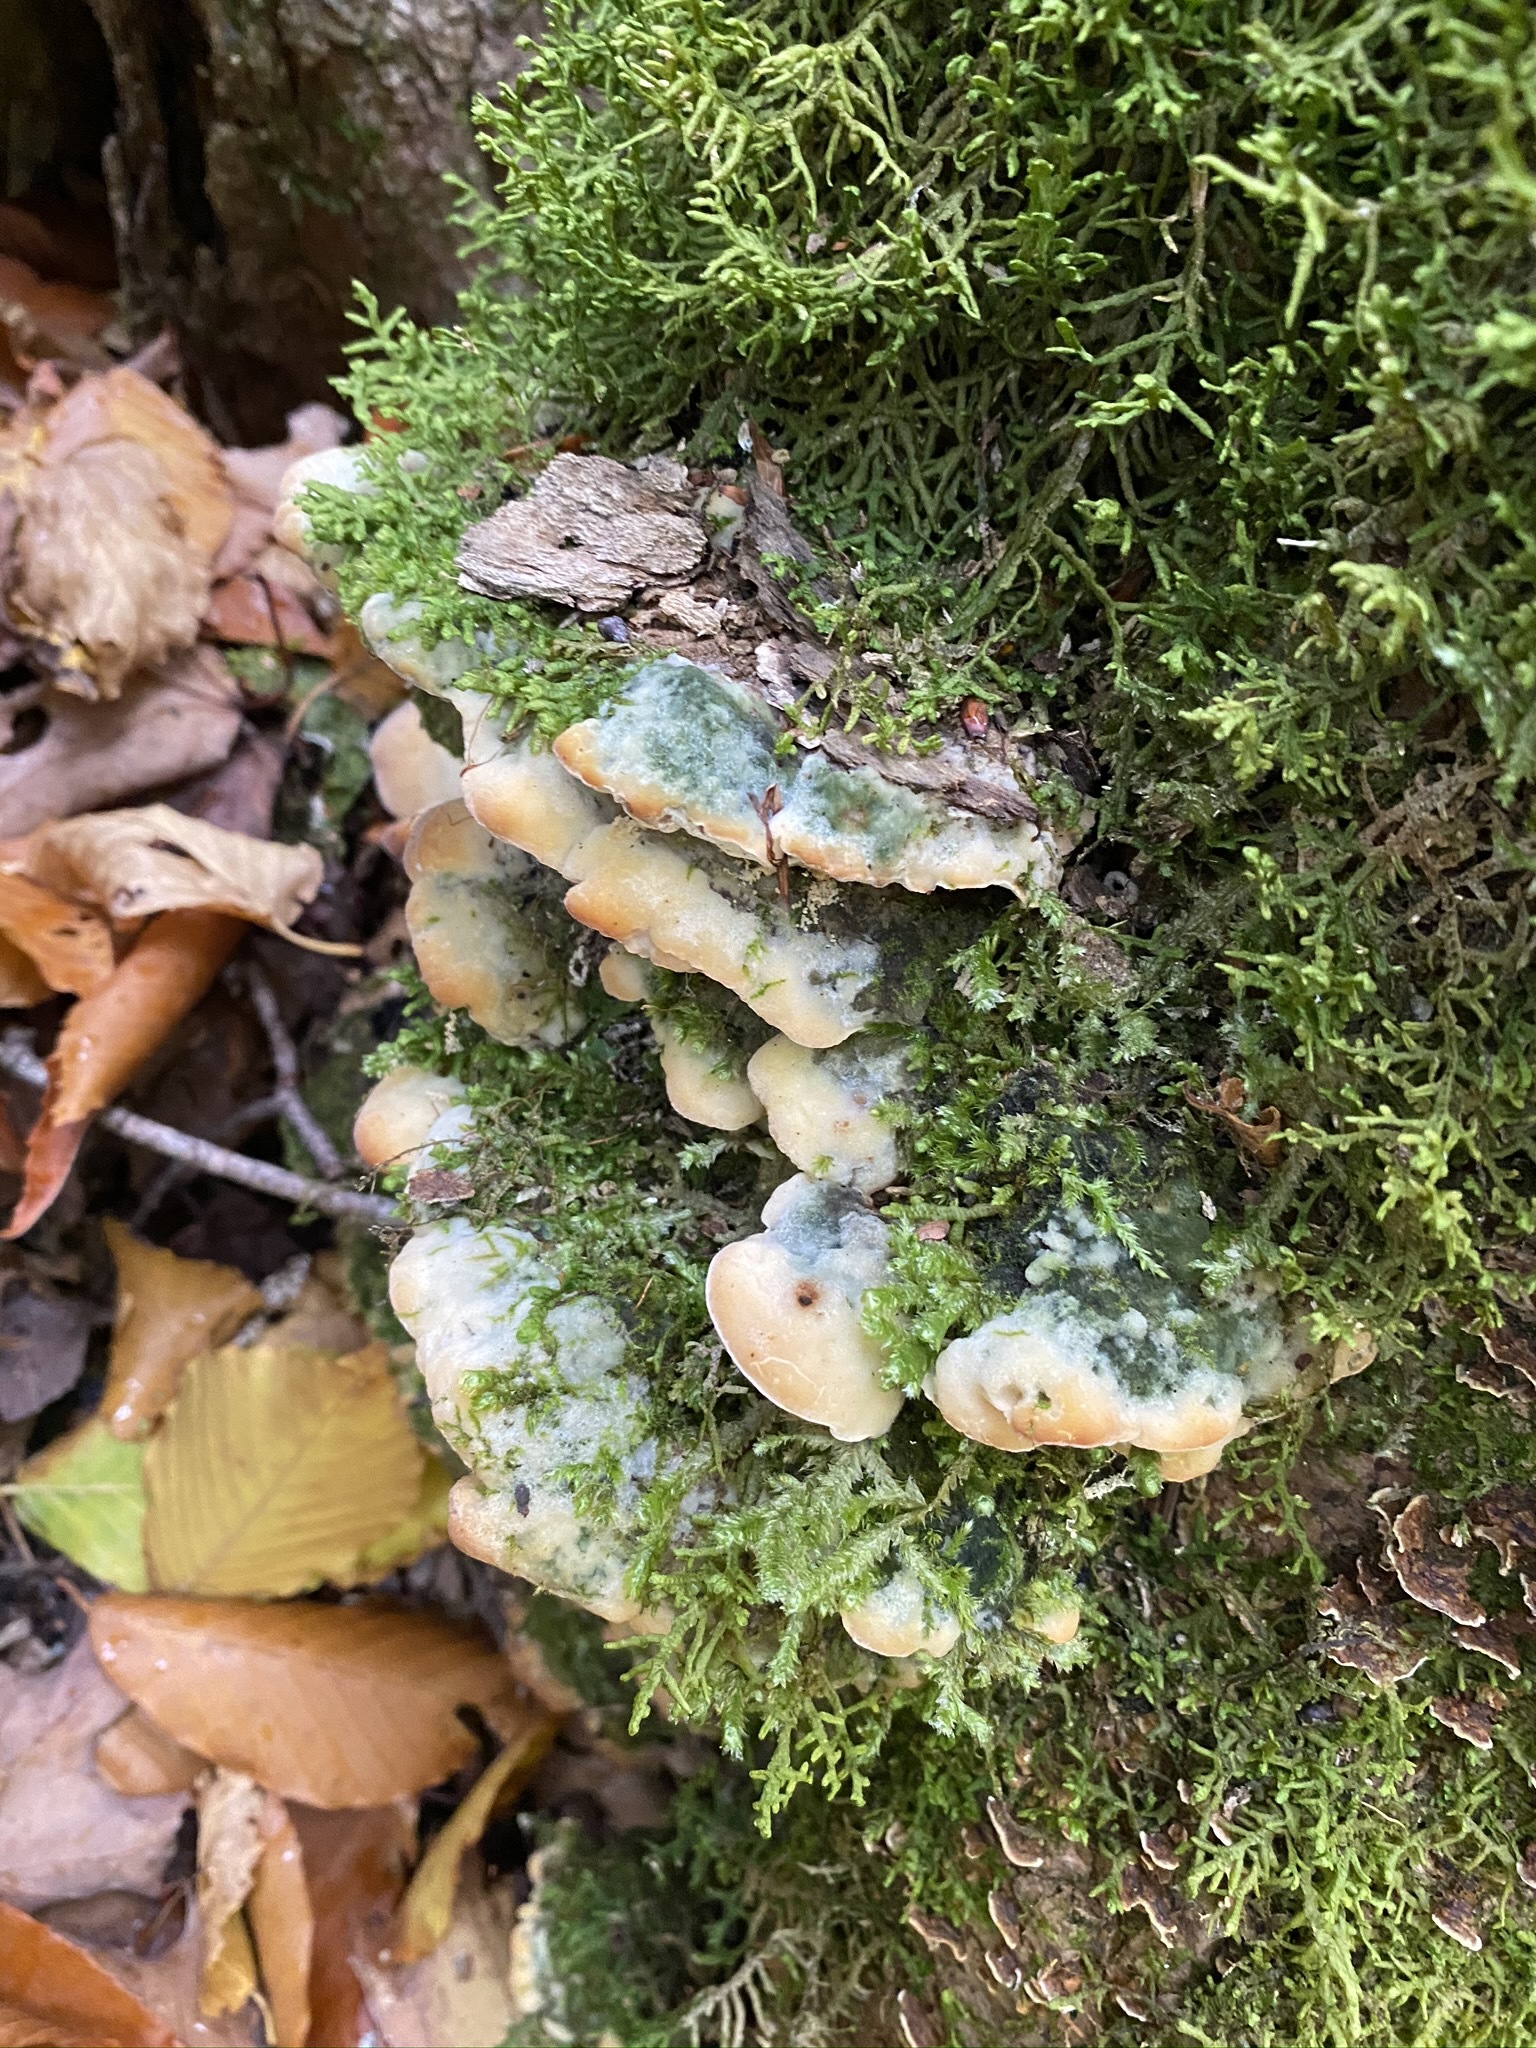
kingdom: Fungi
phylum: Basidiomycota
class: Agaricomycetes
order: Hymenochaetales
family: Oxyporaceae
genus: Oxyporus
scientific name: Oxyporus populinus
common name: Poplar bracket
